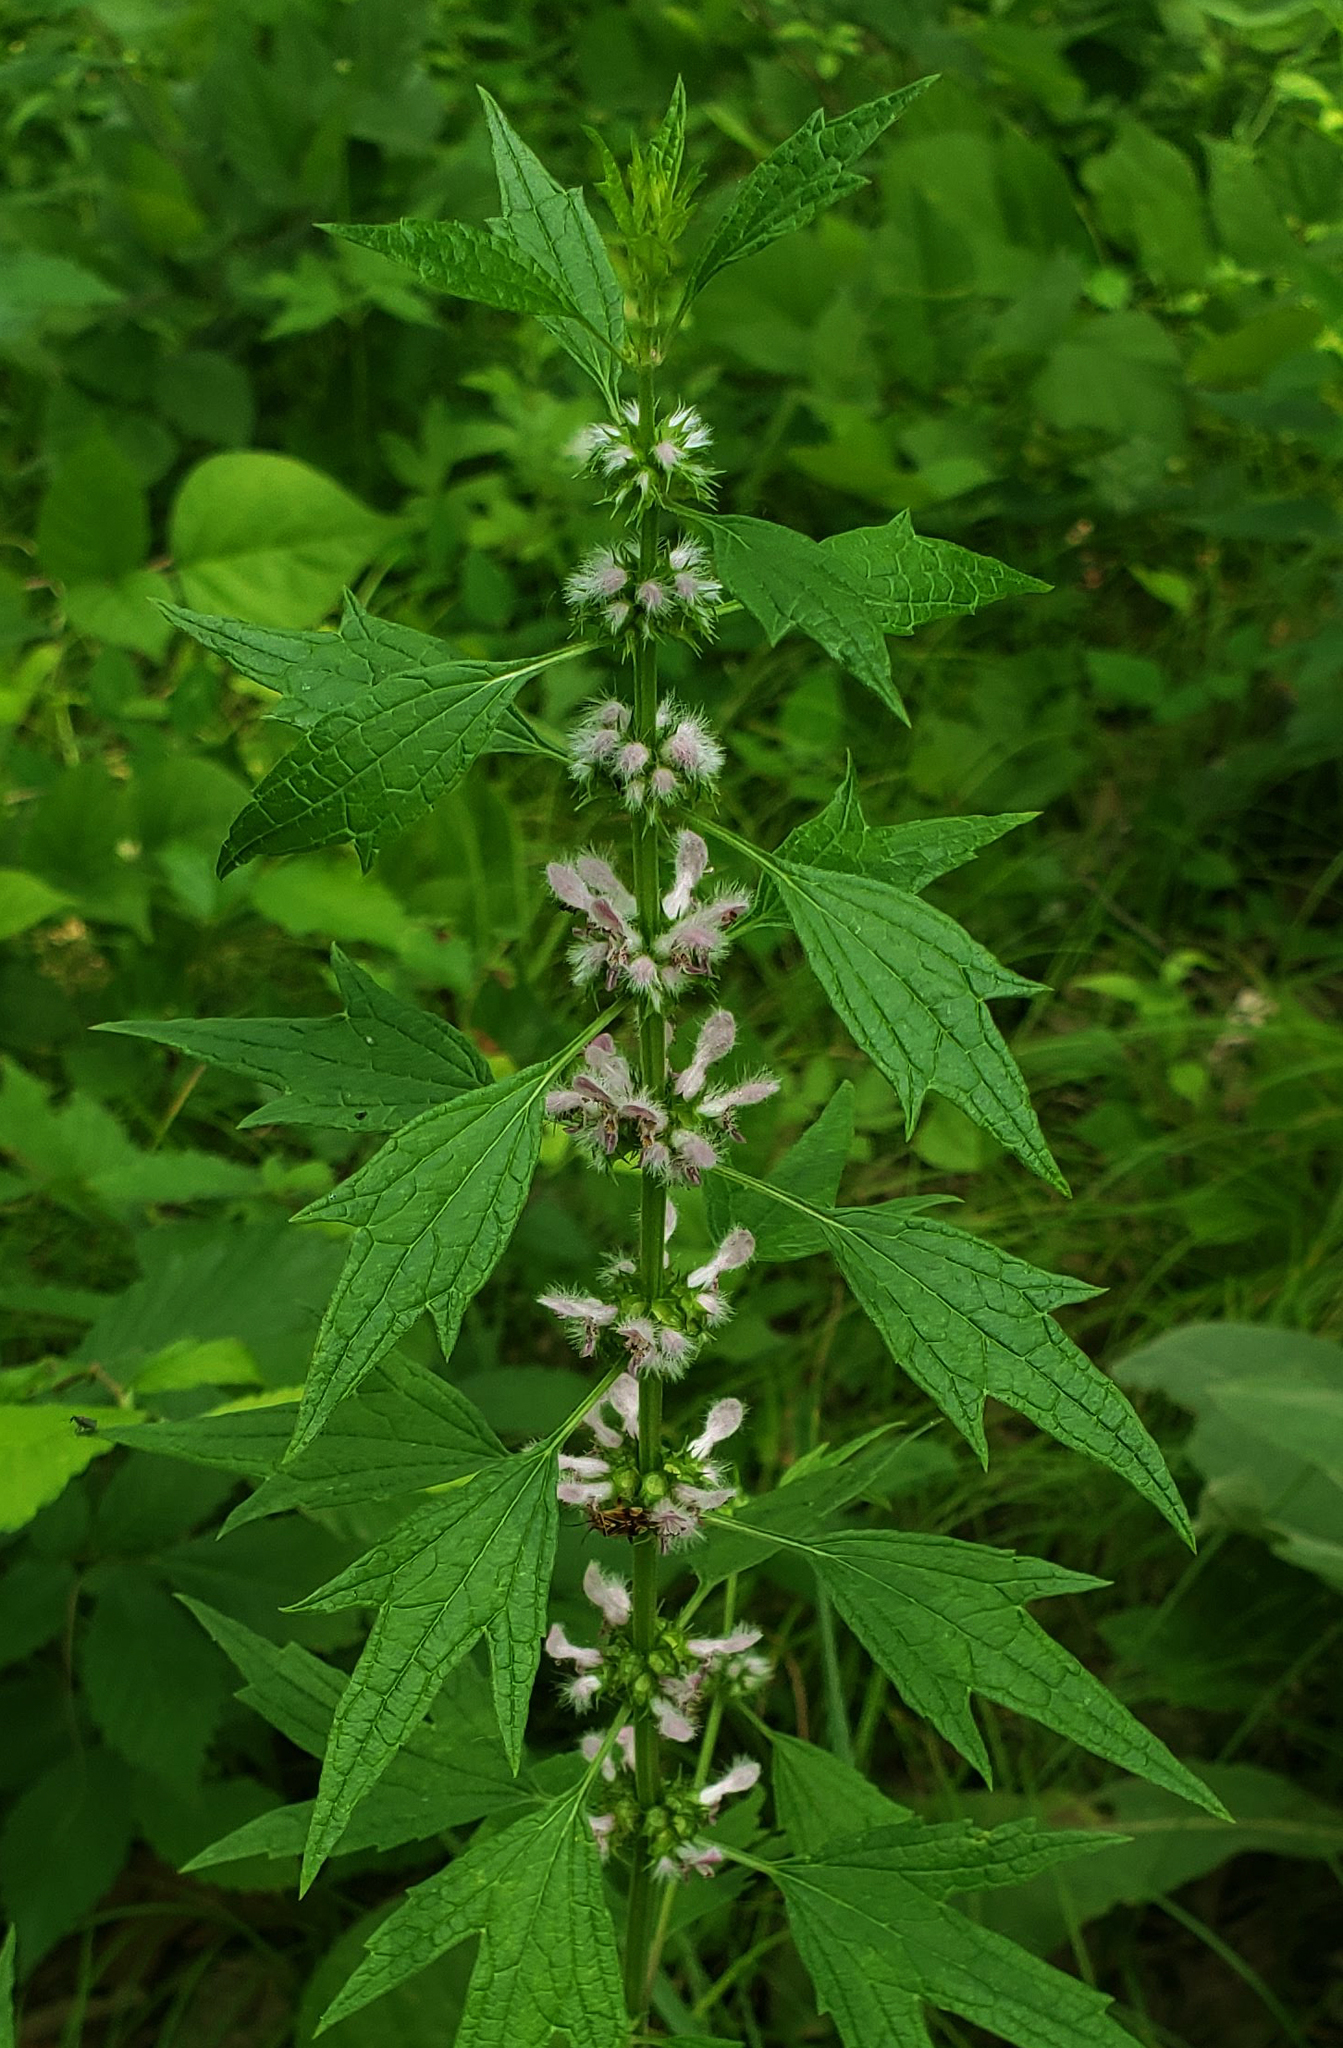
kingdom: Plantae
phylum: Tracheophyta
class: Magnoliopsida
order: Lamiales
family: Lamiaceae
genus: Leonurus
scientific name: Leonurus cardiaca
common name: Motherwort
